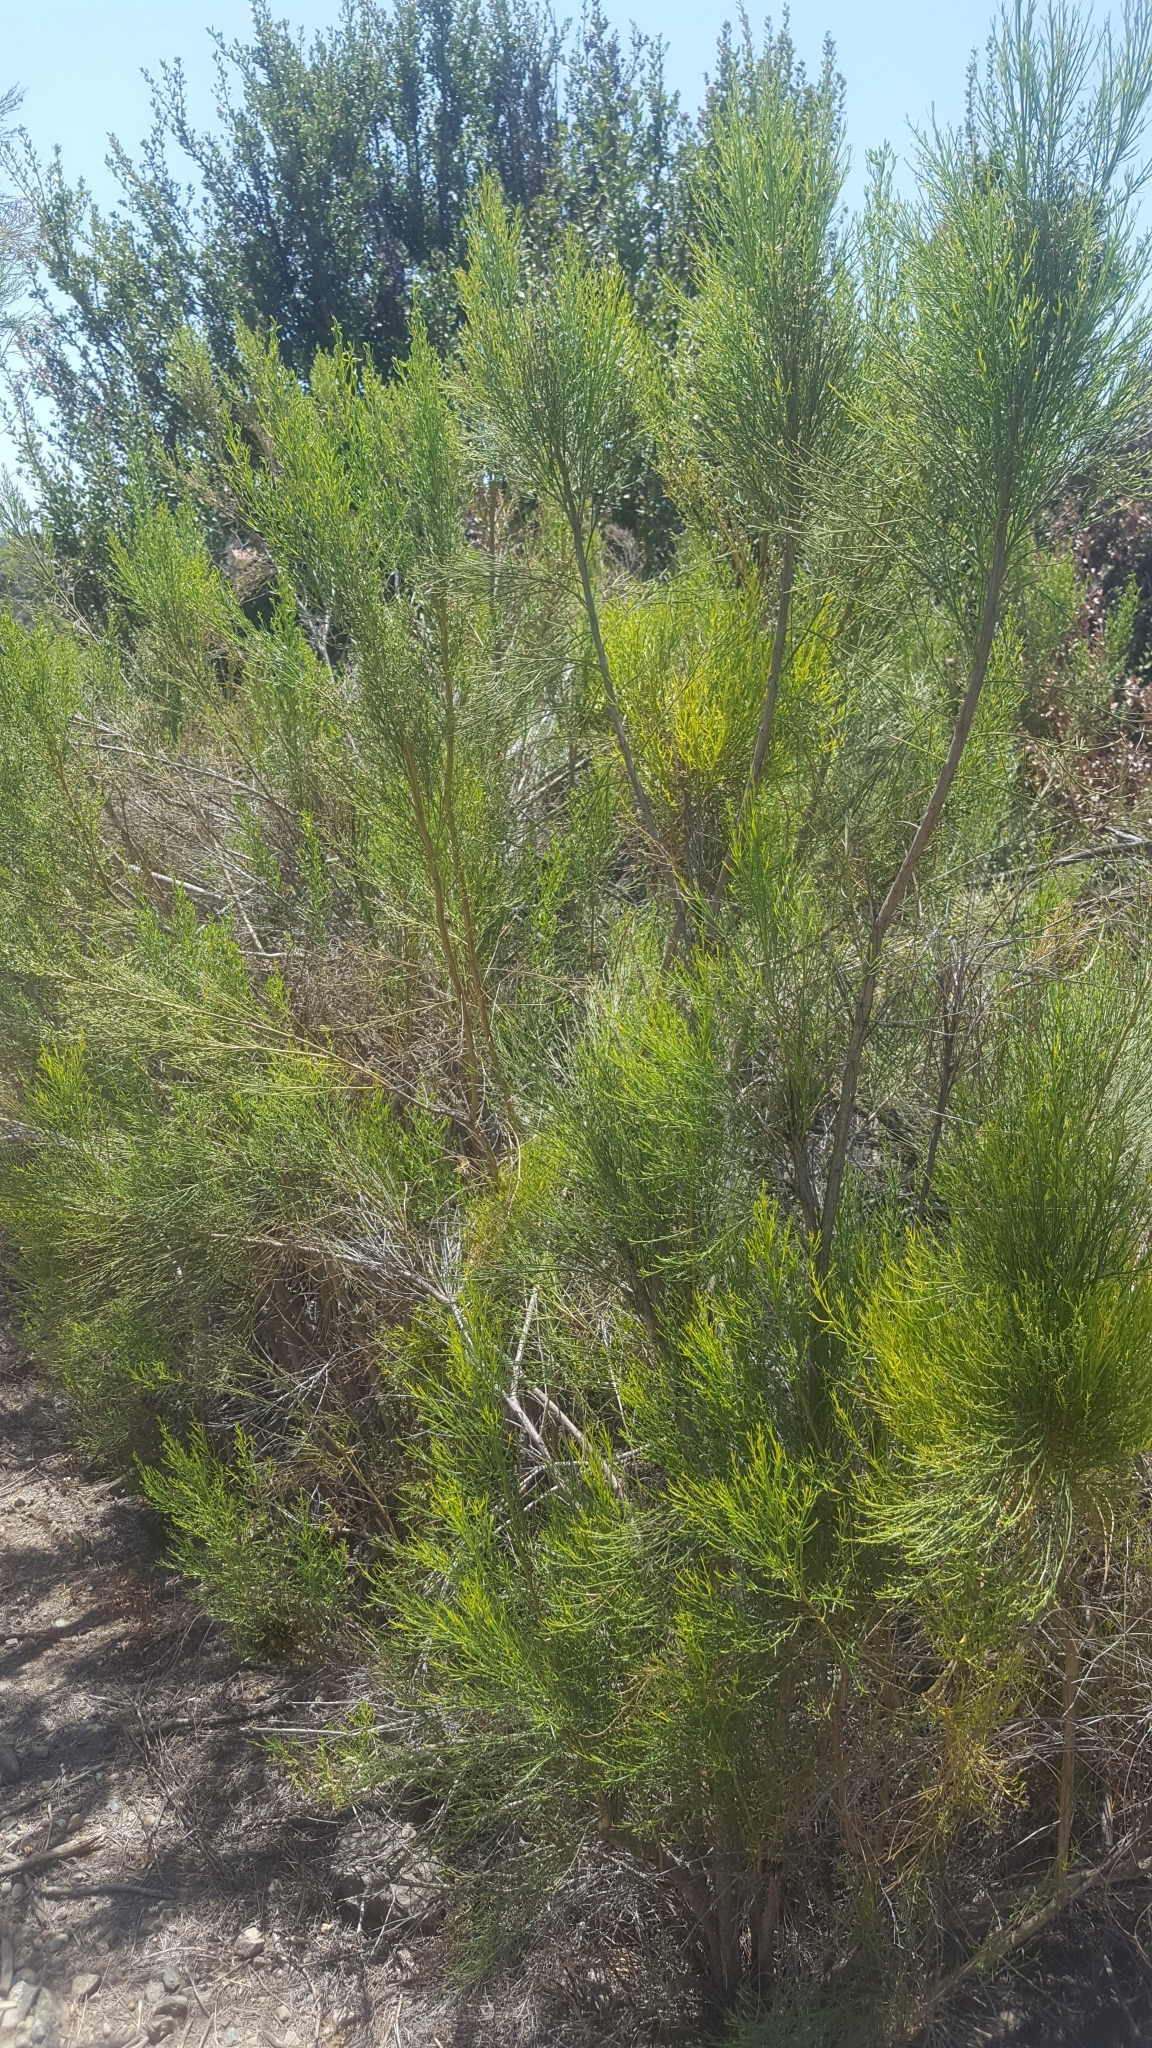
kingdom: Plantae
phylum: Tracheophyta
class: Magnoliopsida
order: Asterales
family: Asteraceae
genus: Baccharis
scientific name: Baccharis sarothroides
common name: Desert-broom
